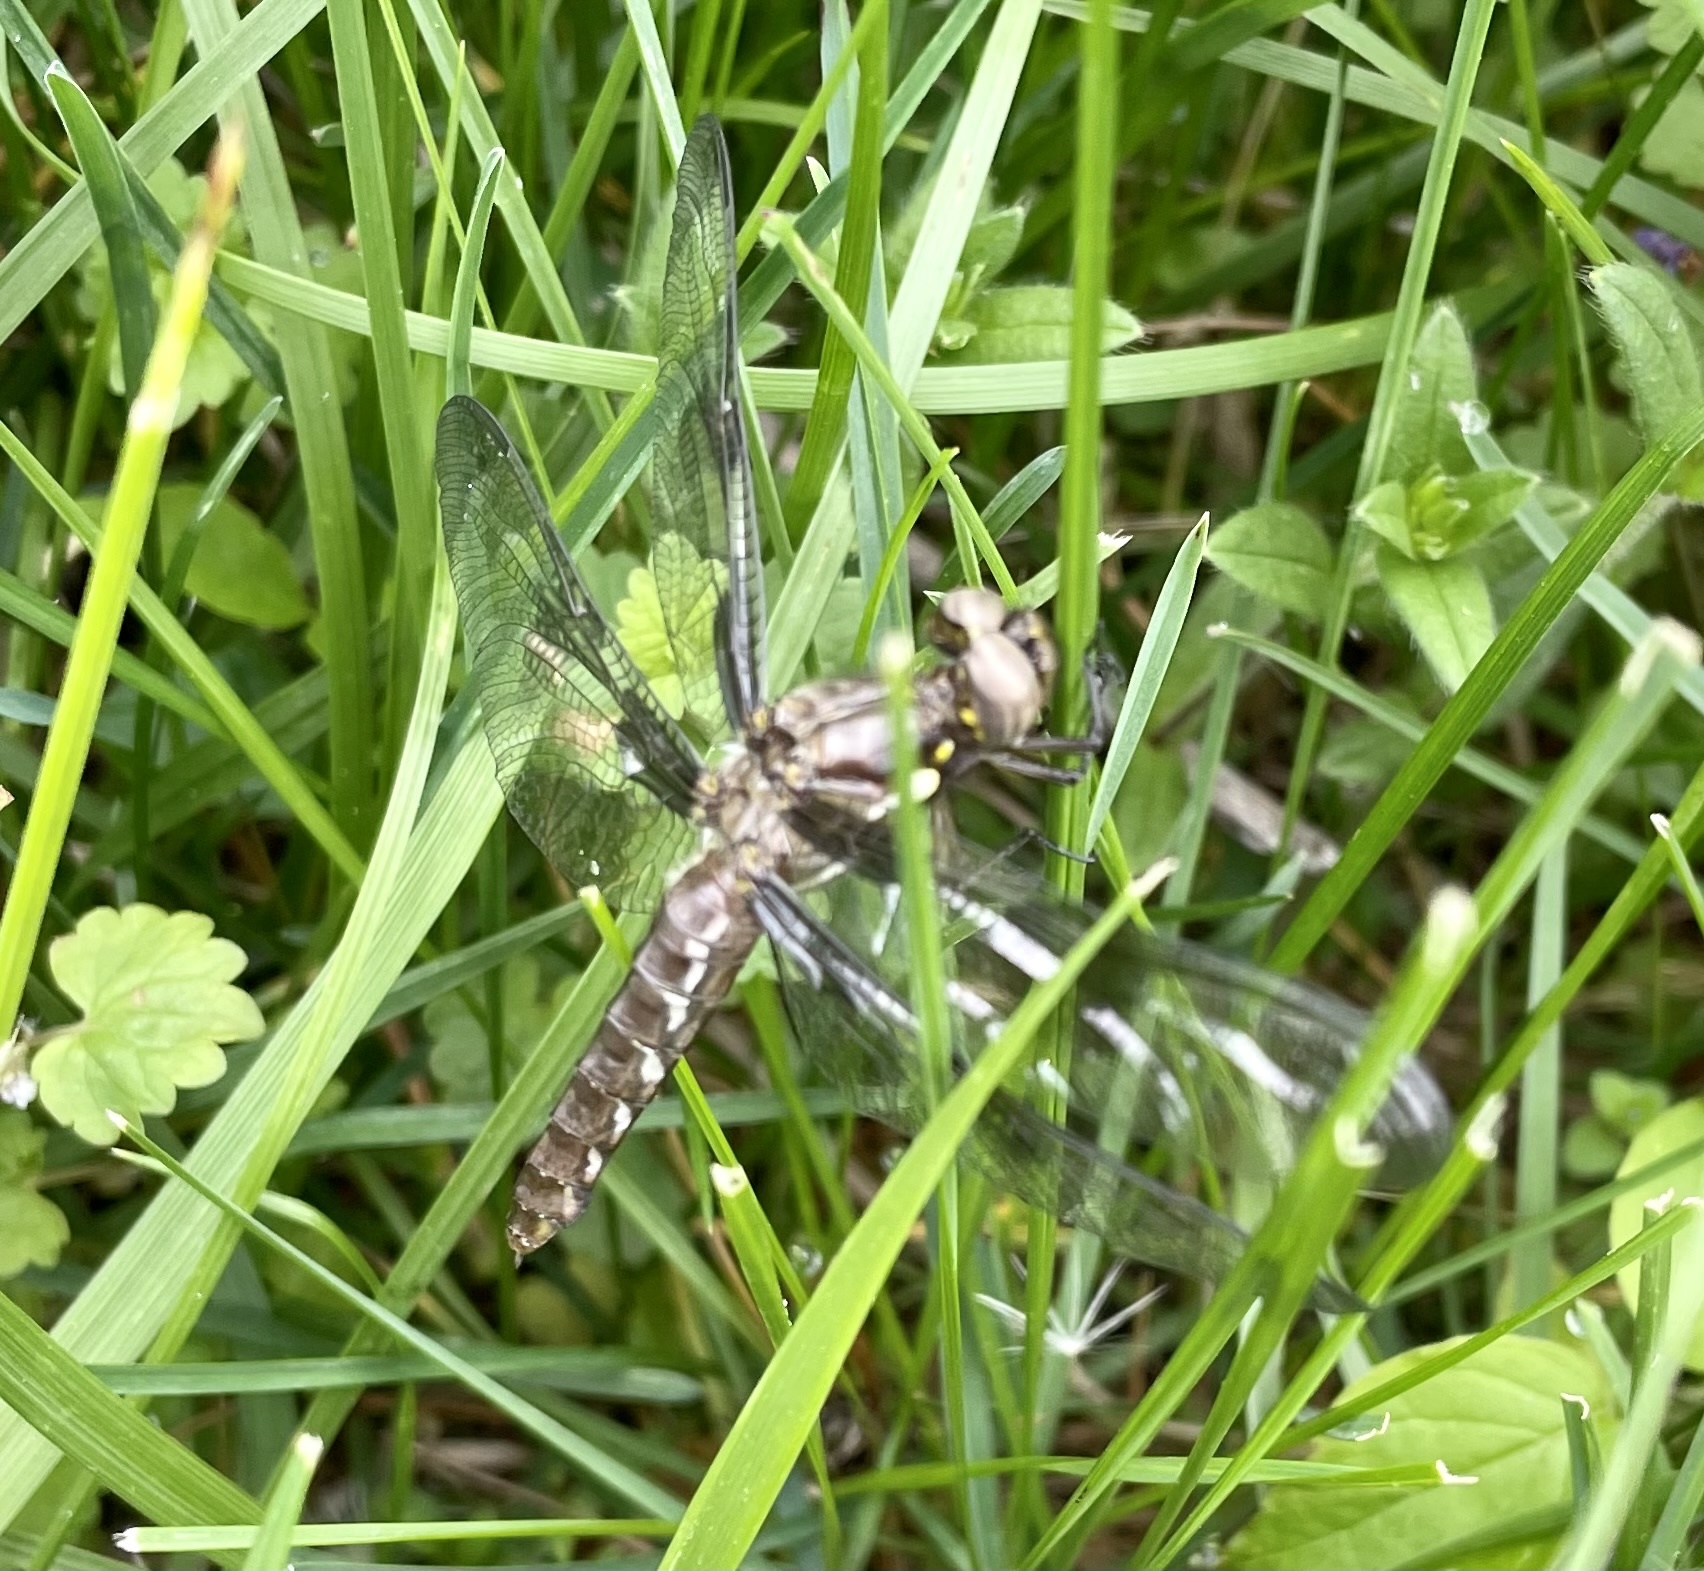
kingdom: Animalia
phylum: Arthropoda
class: Insecta
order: Odonata
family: Libellulidae
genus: Plathemis
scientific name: Plathemis lydia
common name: Common whitetail
